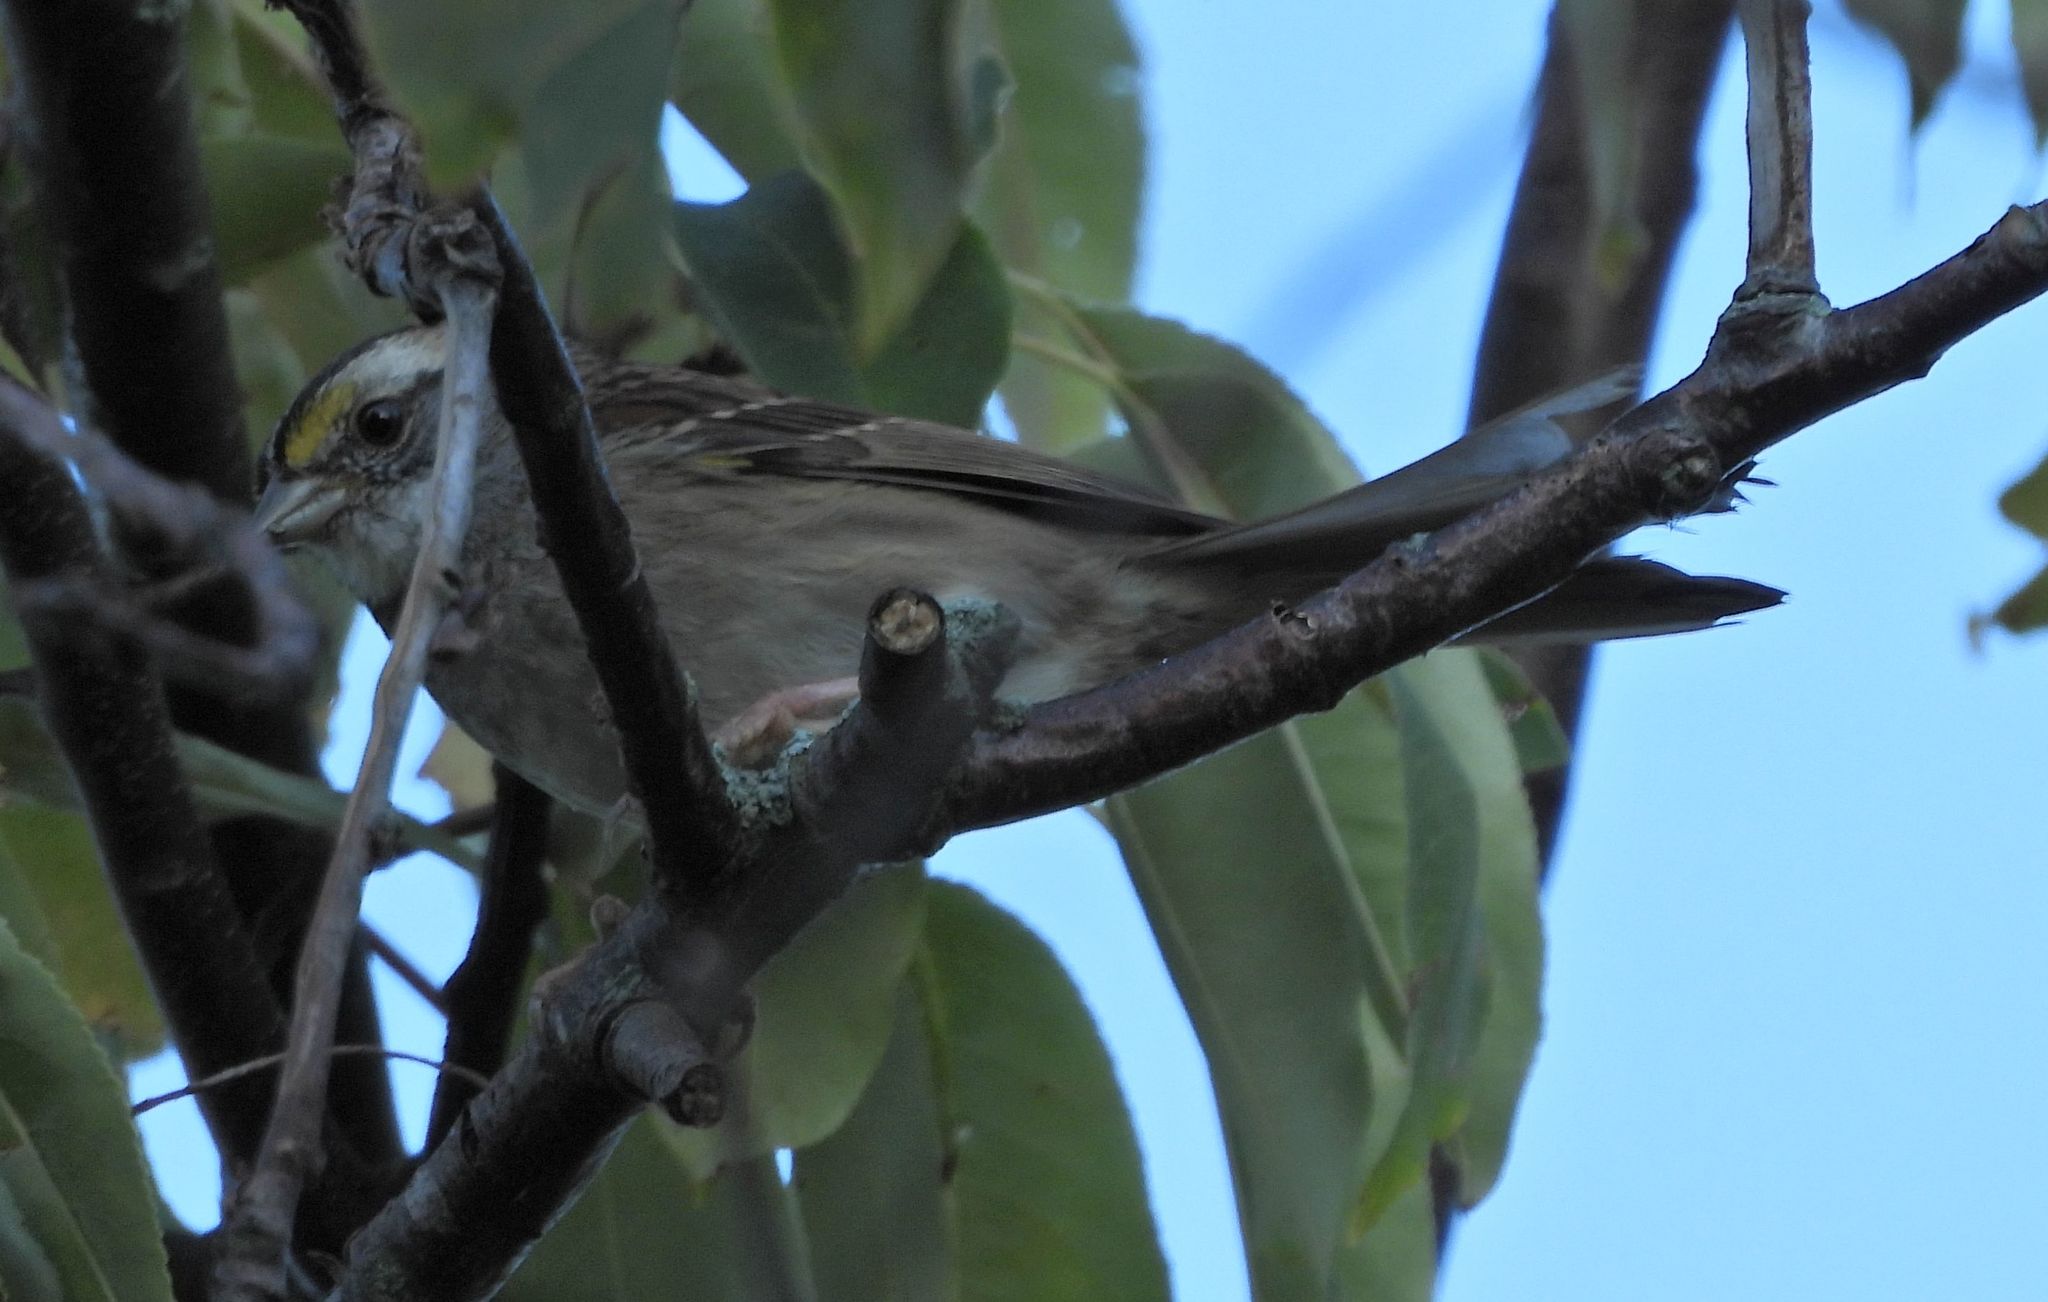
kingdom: Animalia
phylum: Chordata
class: Aves
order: Passeriformes
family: Passerellidae
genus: Zonotrichia
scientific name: Zonotrichia albicollis
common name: White-throated sparrow
